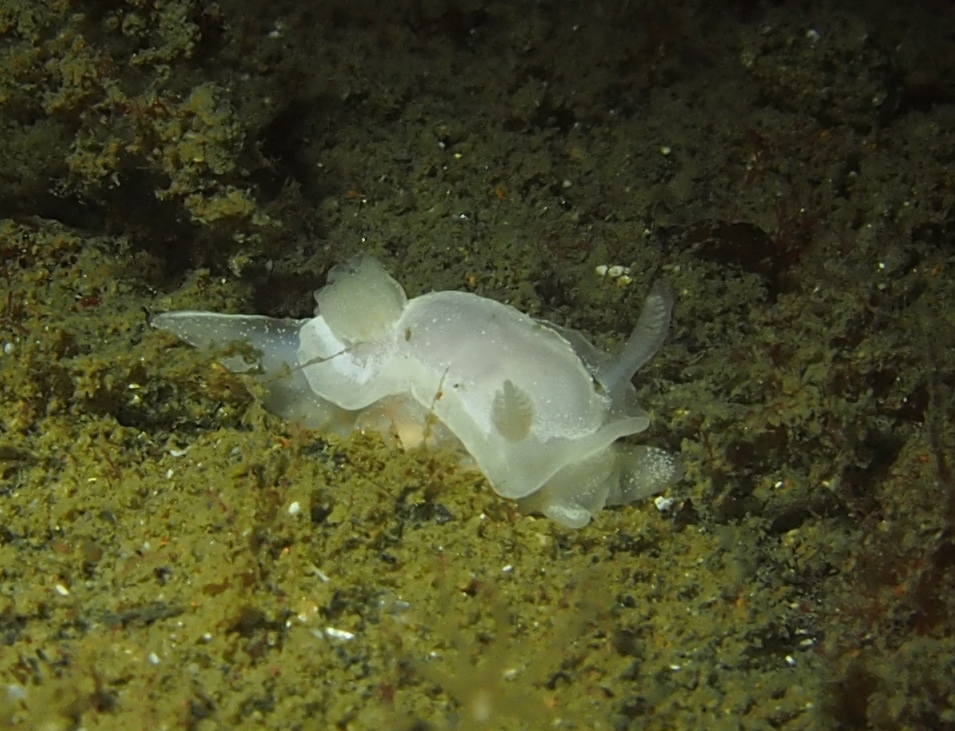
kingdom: Animalia
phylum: Mollusca
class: Gastropoda
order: Nudibranchia
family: Goniodorididae
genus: Okenia
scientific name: Okenia
